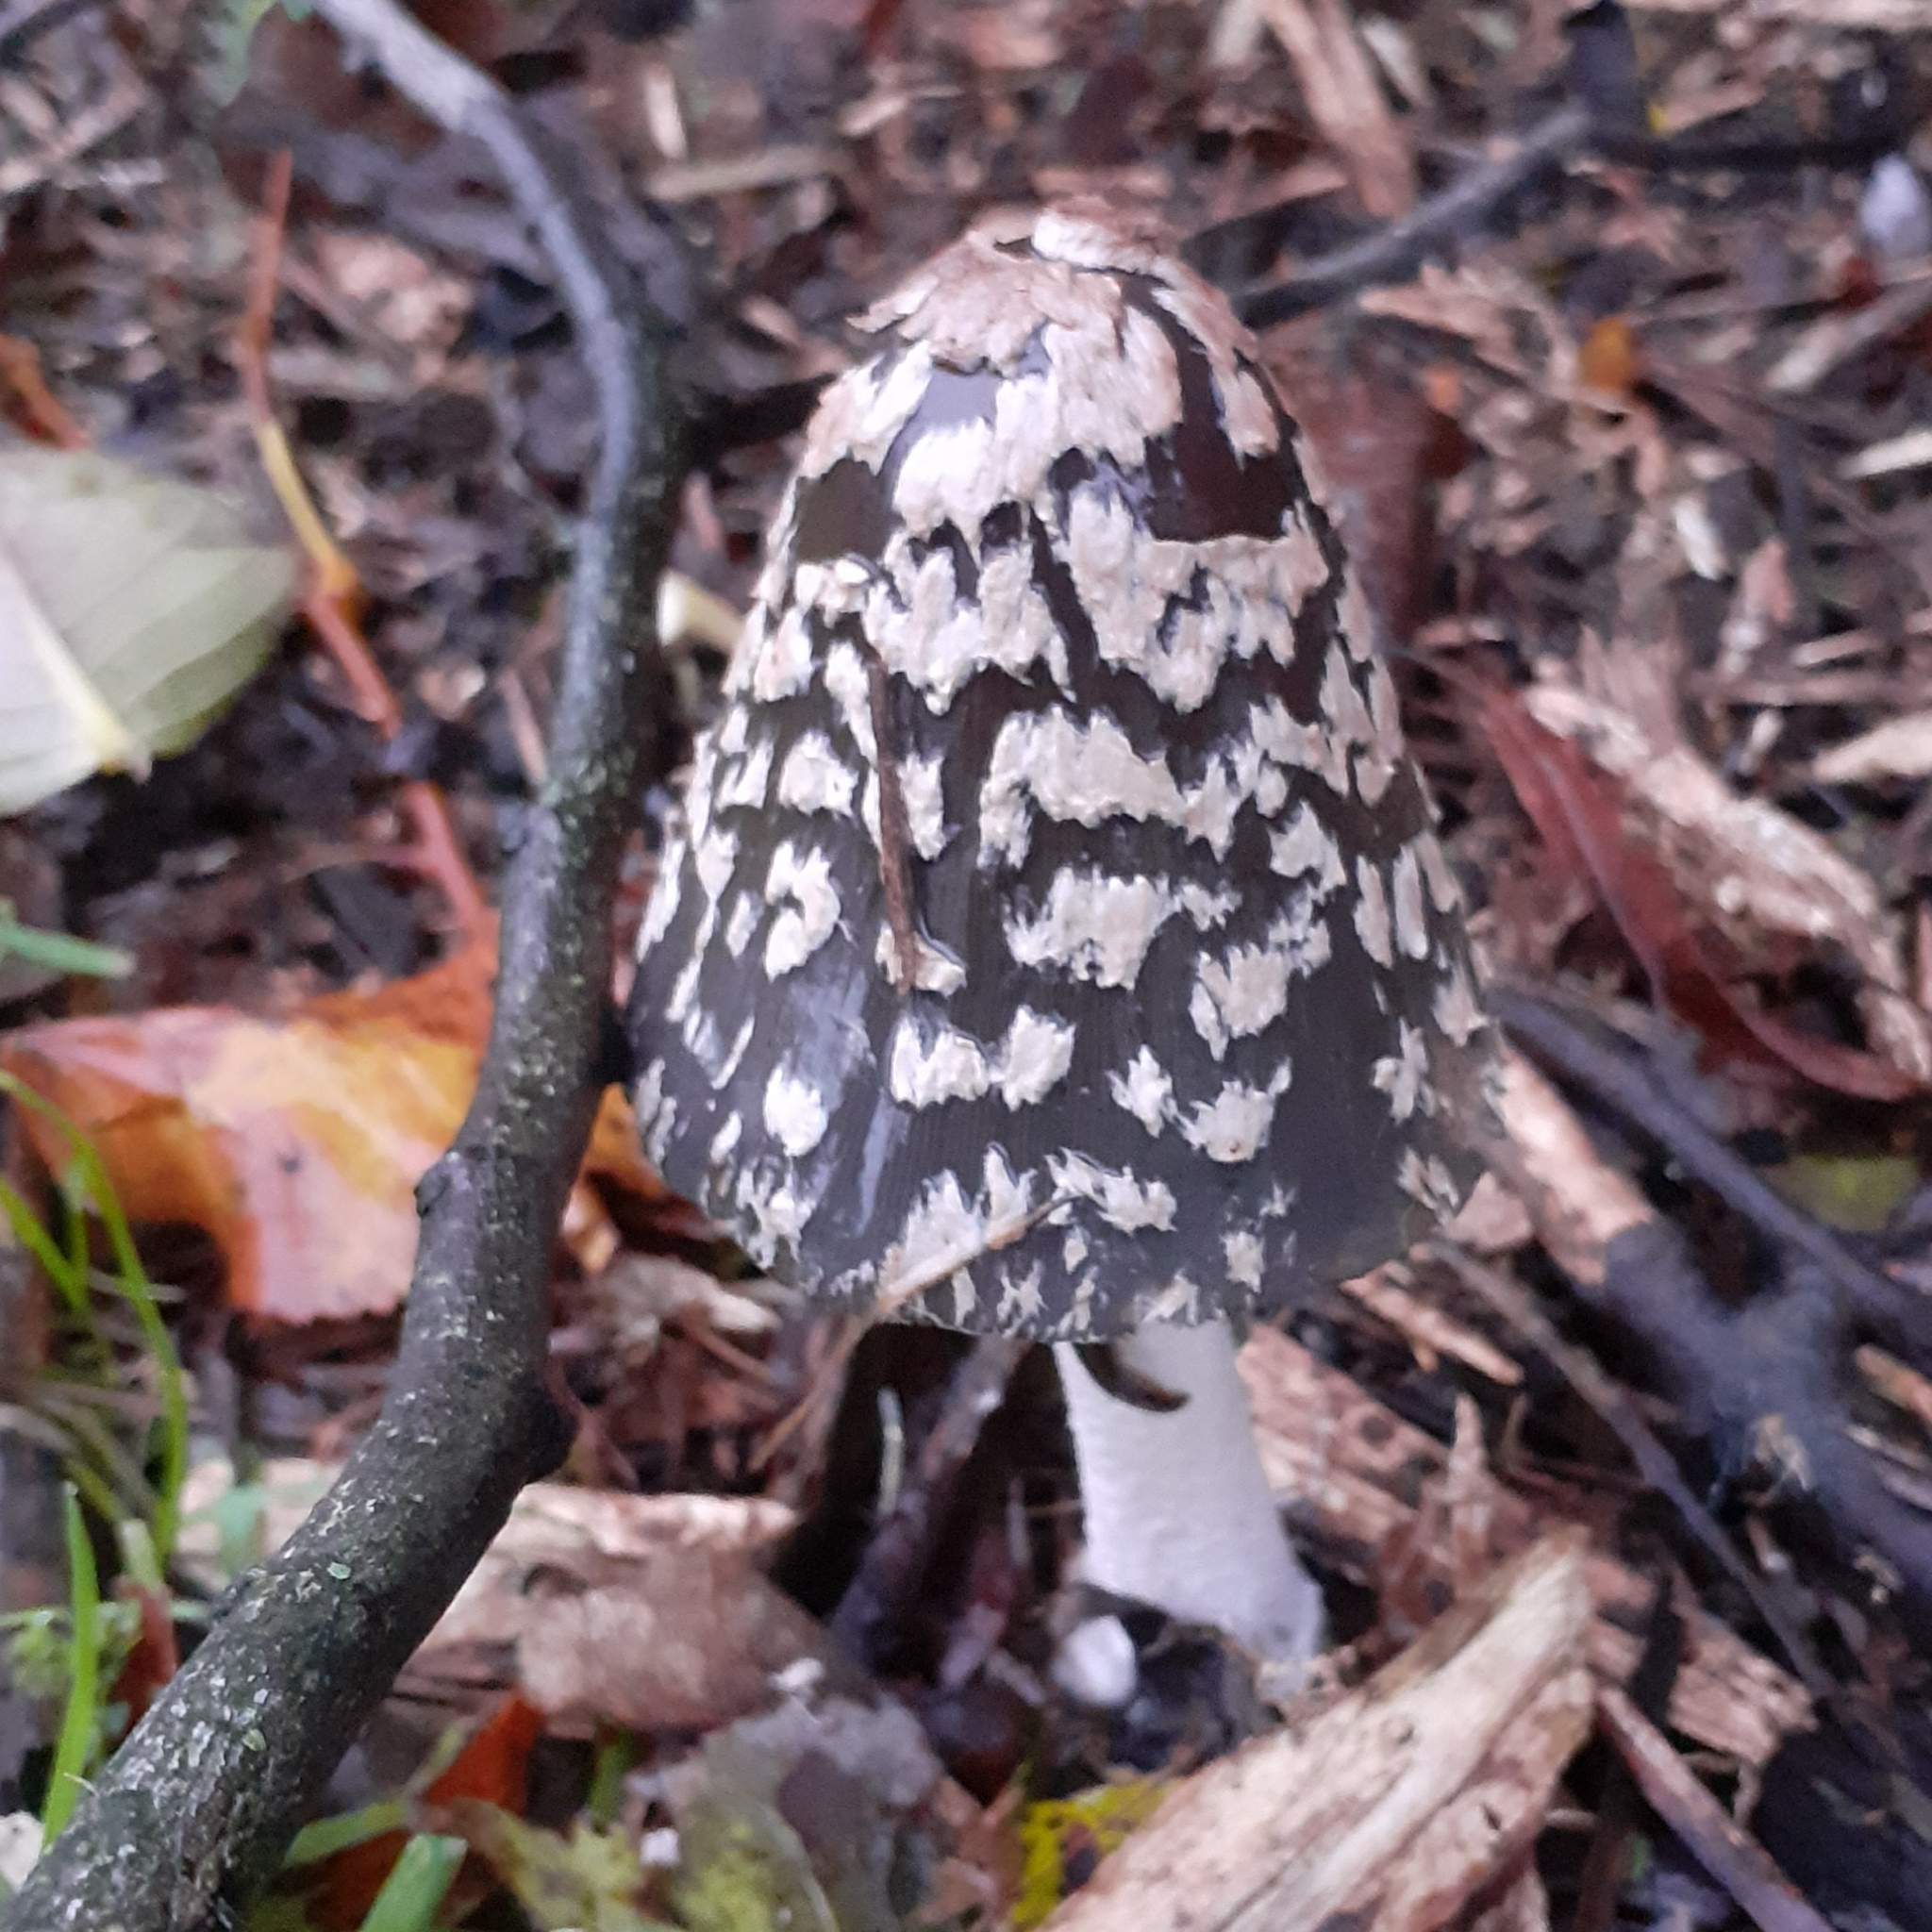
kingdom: Fungi
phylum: Basidiomycota
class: Agaricomycetes
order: Agaricales
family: Psathyrellaceae
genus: Coprinopsis
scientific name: Coprinopsis picacea
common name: Magpie inkcap
